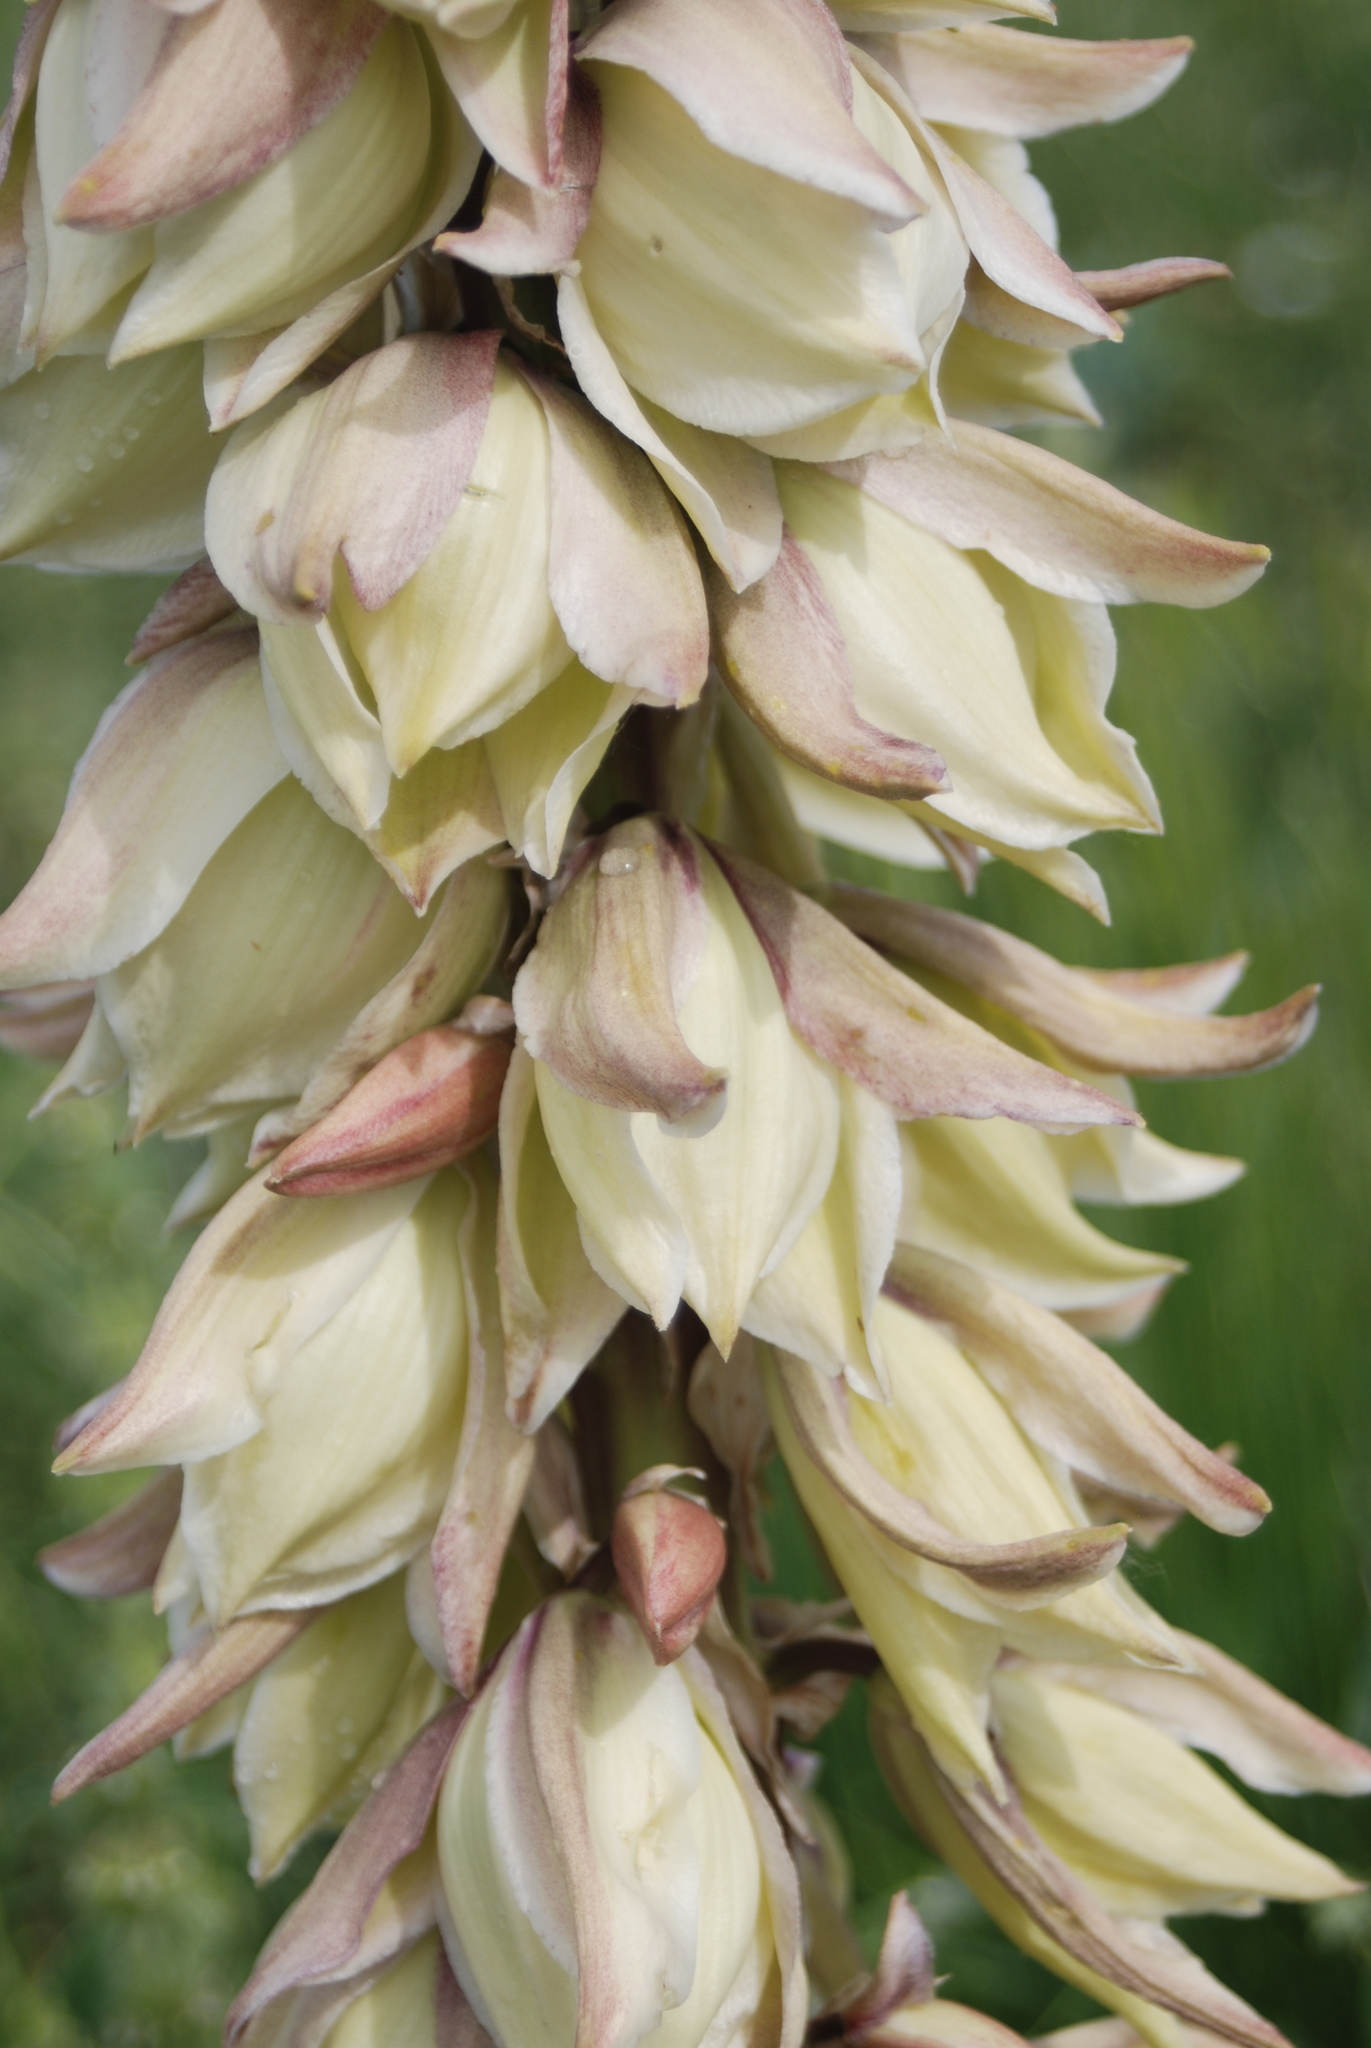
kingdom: Plantae
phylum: Tracheophyta
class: Liliopsida
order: Asparagales
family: Asparagaceae
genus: Yucca
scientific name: Yucca glauca
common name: Great plains yucca
